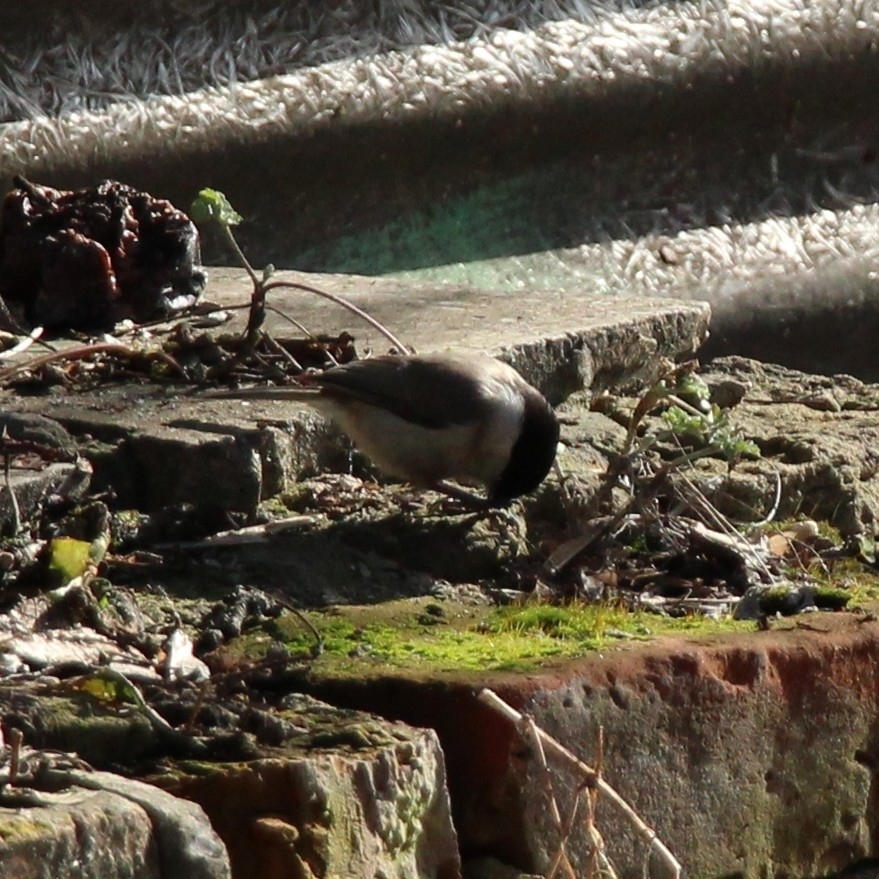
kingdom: Animalia
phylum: Chordata
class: Aves
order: Passeriformes
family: Paridae
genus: Poecile
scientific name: Poecile palustris
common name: Marsh tit
